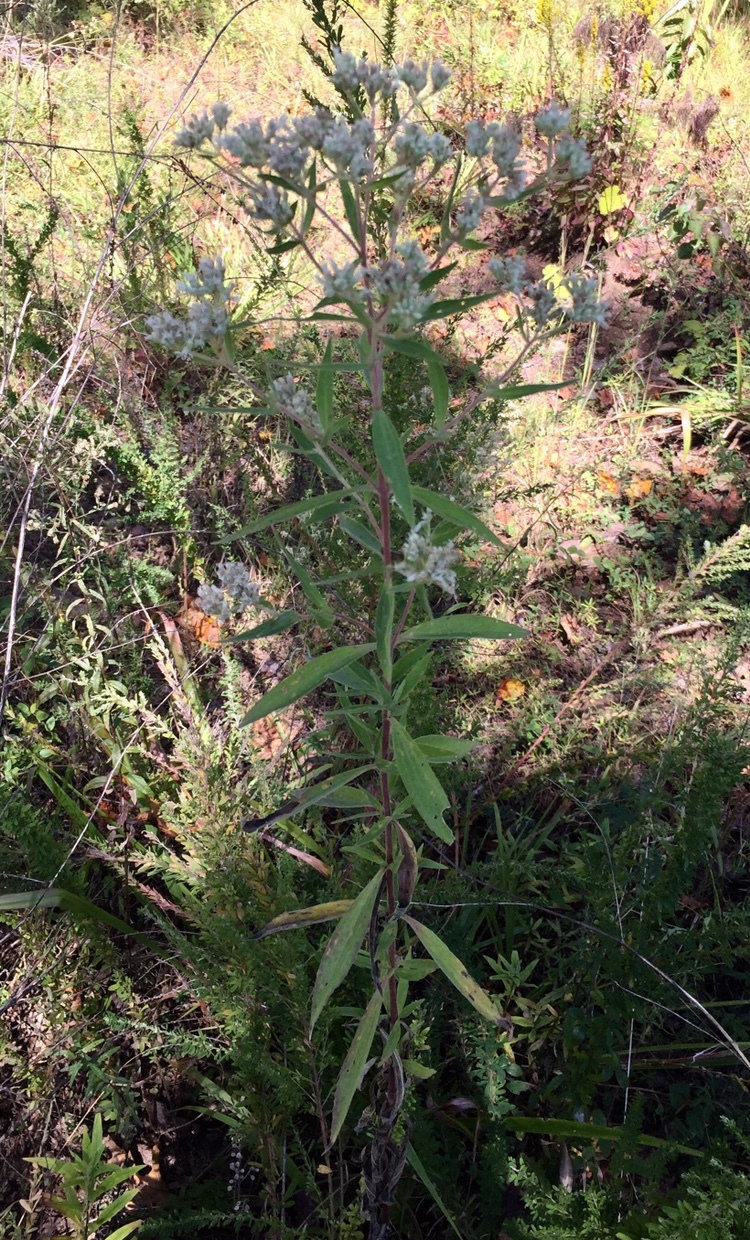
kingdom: Plantae
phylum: Tracheophyta
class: Magnoliopsida
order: Asterales
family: Asteraceae
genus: Eupatorium
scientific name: Eupatorium altissimum
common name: Tall thoroughwort
